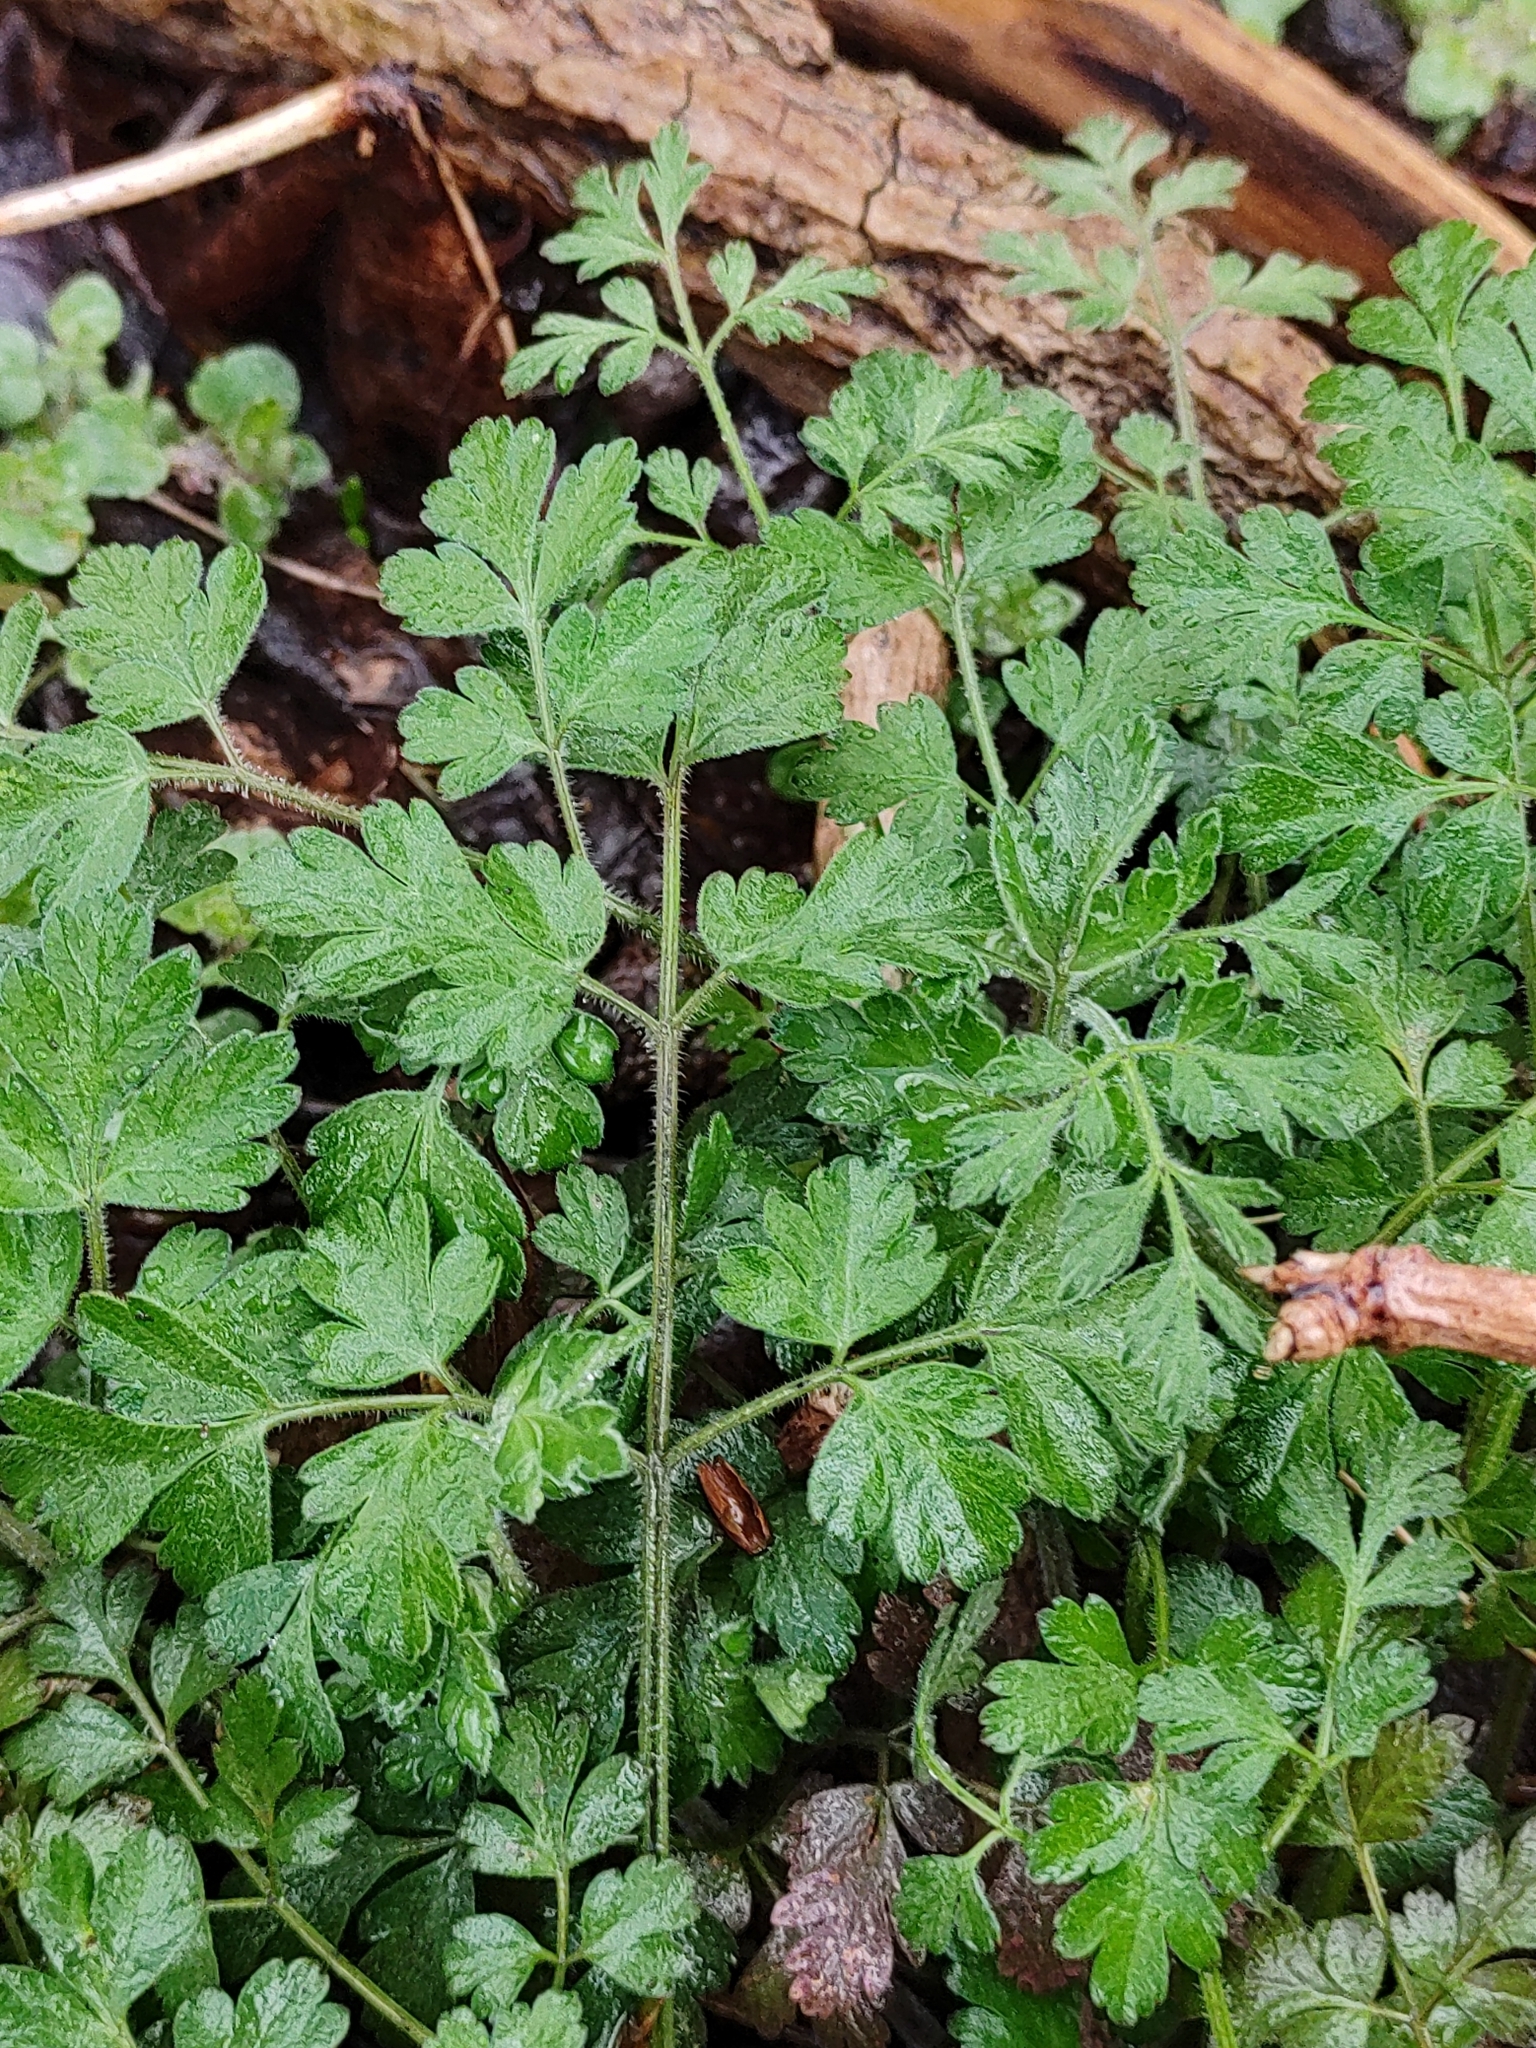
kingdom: Plantae
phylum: Tracheophyta
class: Magnoliopsida
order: Apiales
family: Apiaceae
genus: Chaerophyllum
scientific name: Chaerophyllum temulum
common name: Rough chervil
